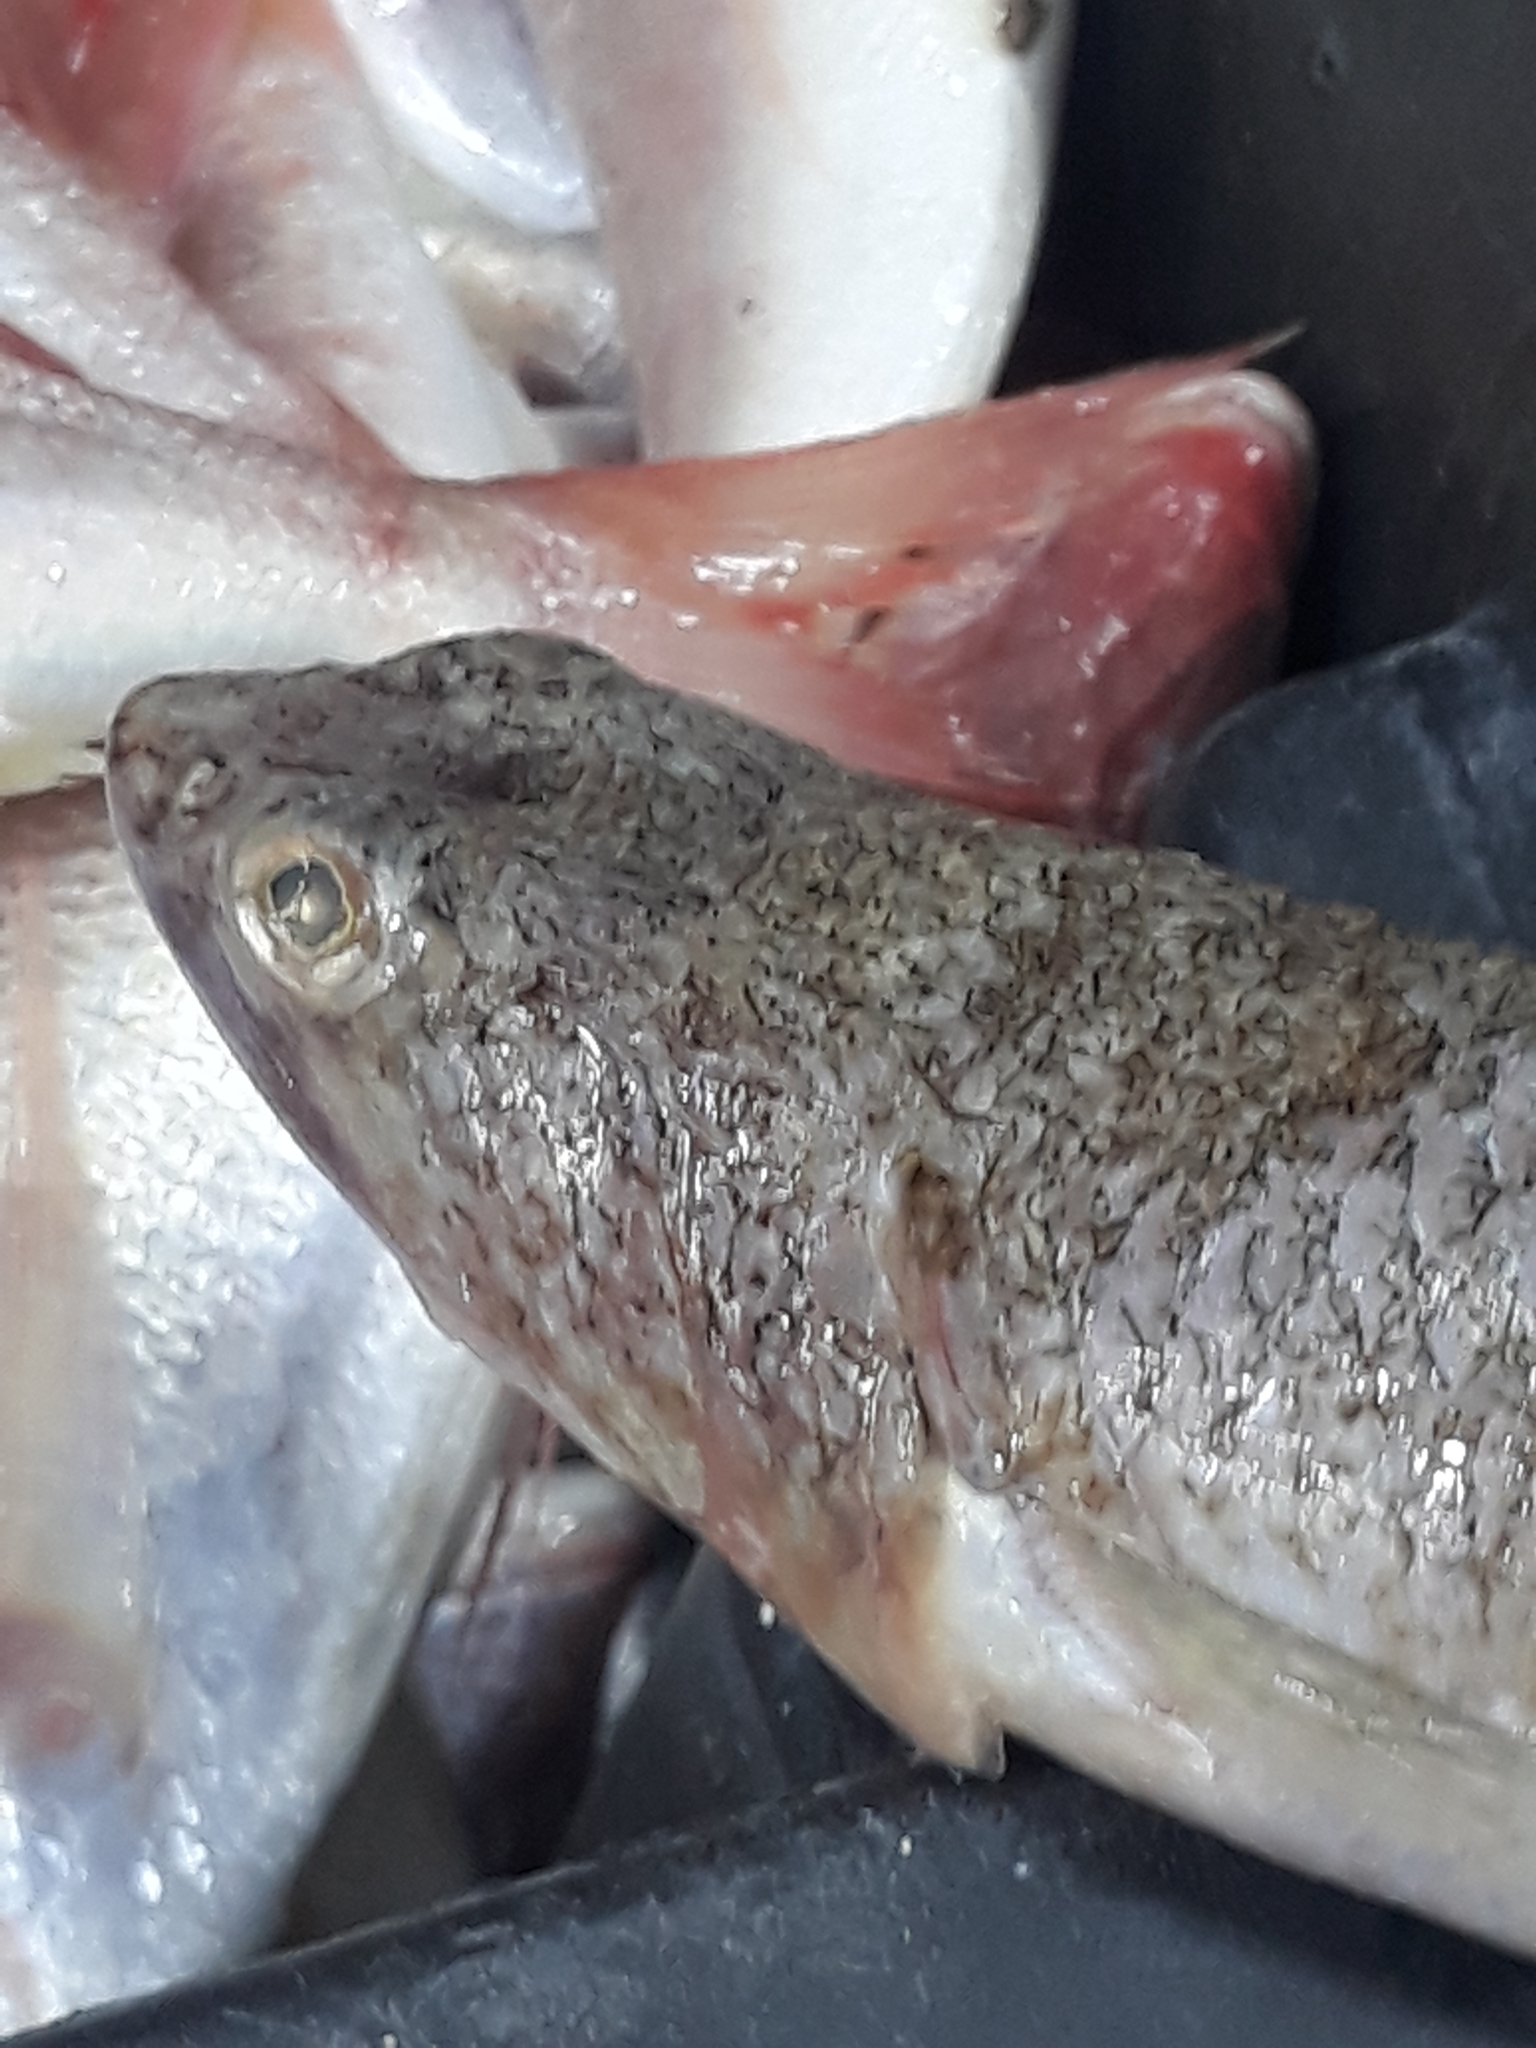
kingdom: Animalia
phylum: Chordata
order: Aulopiformes
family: Synodontidae
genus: Synodus
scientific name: Synodus saurus
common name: Atlantic lizardfish
